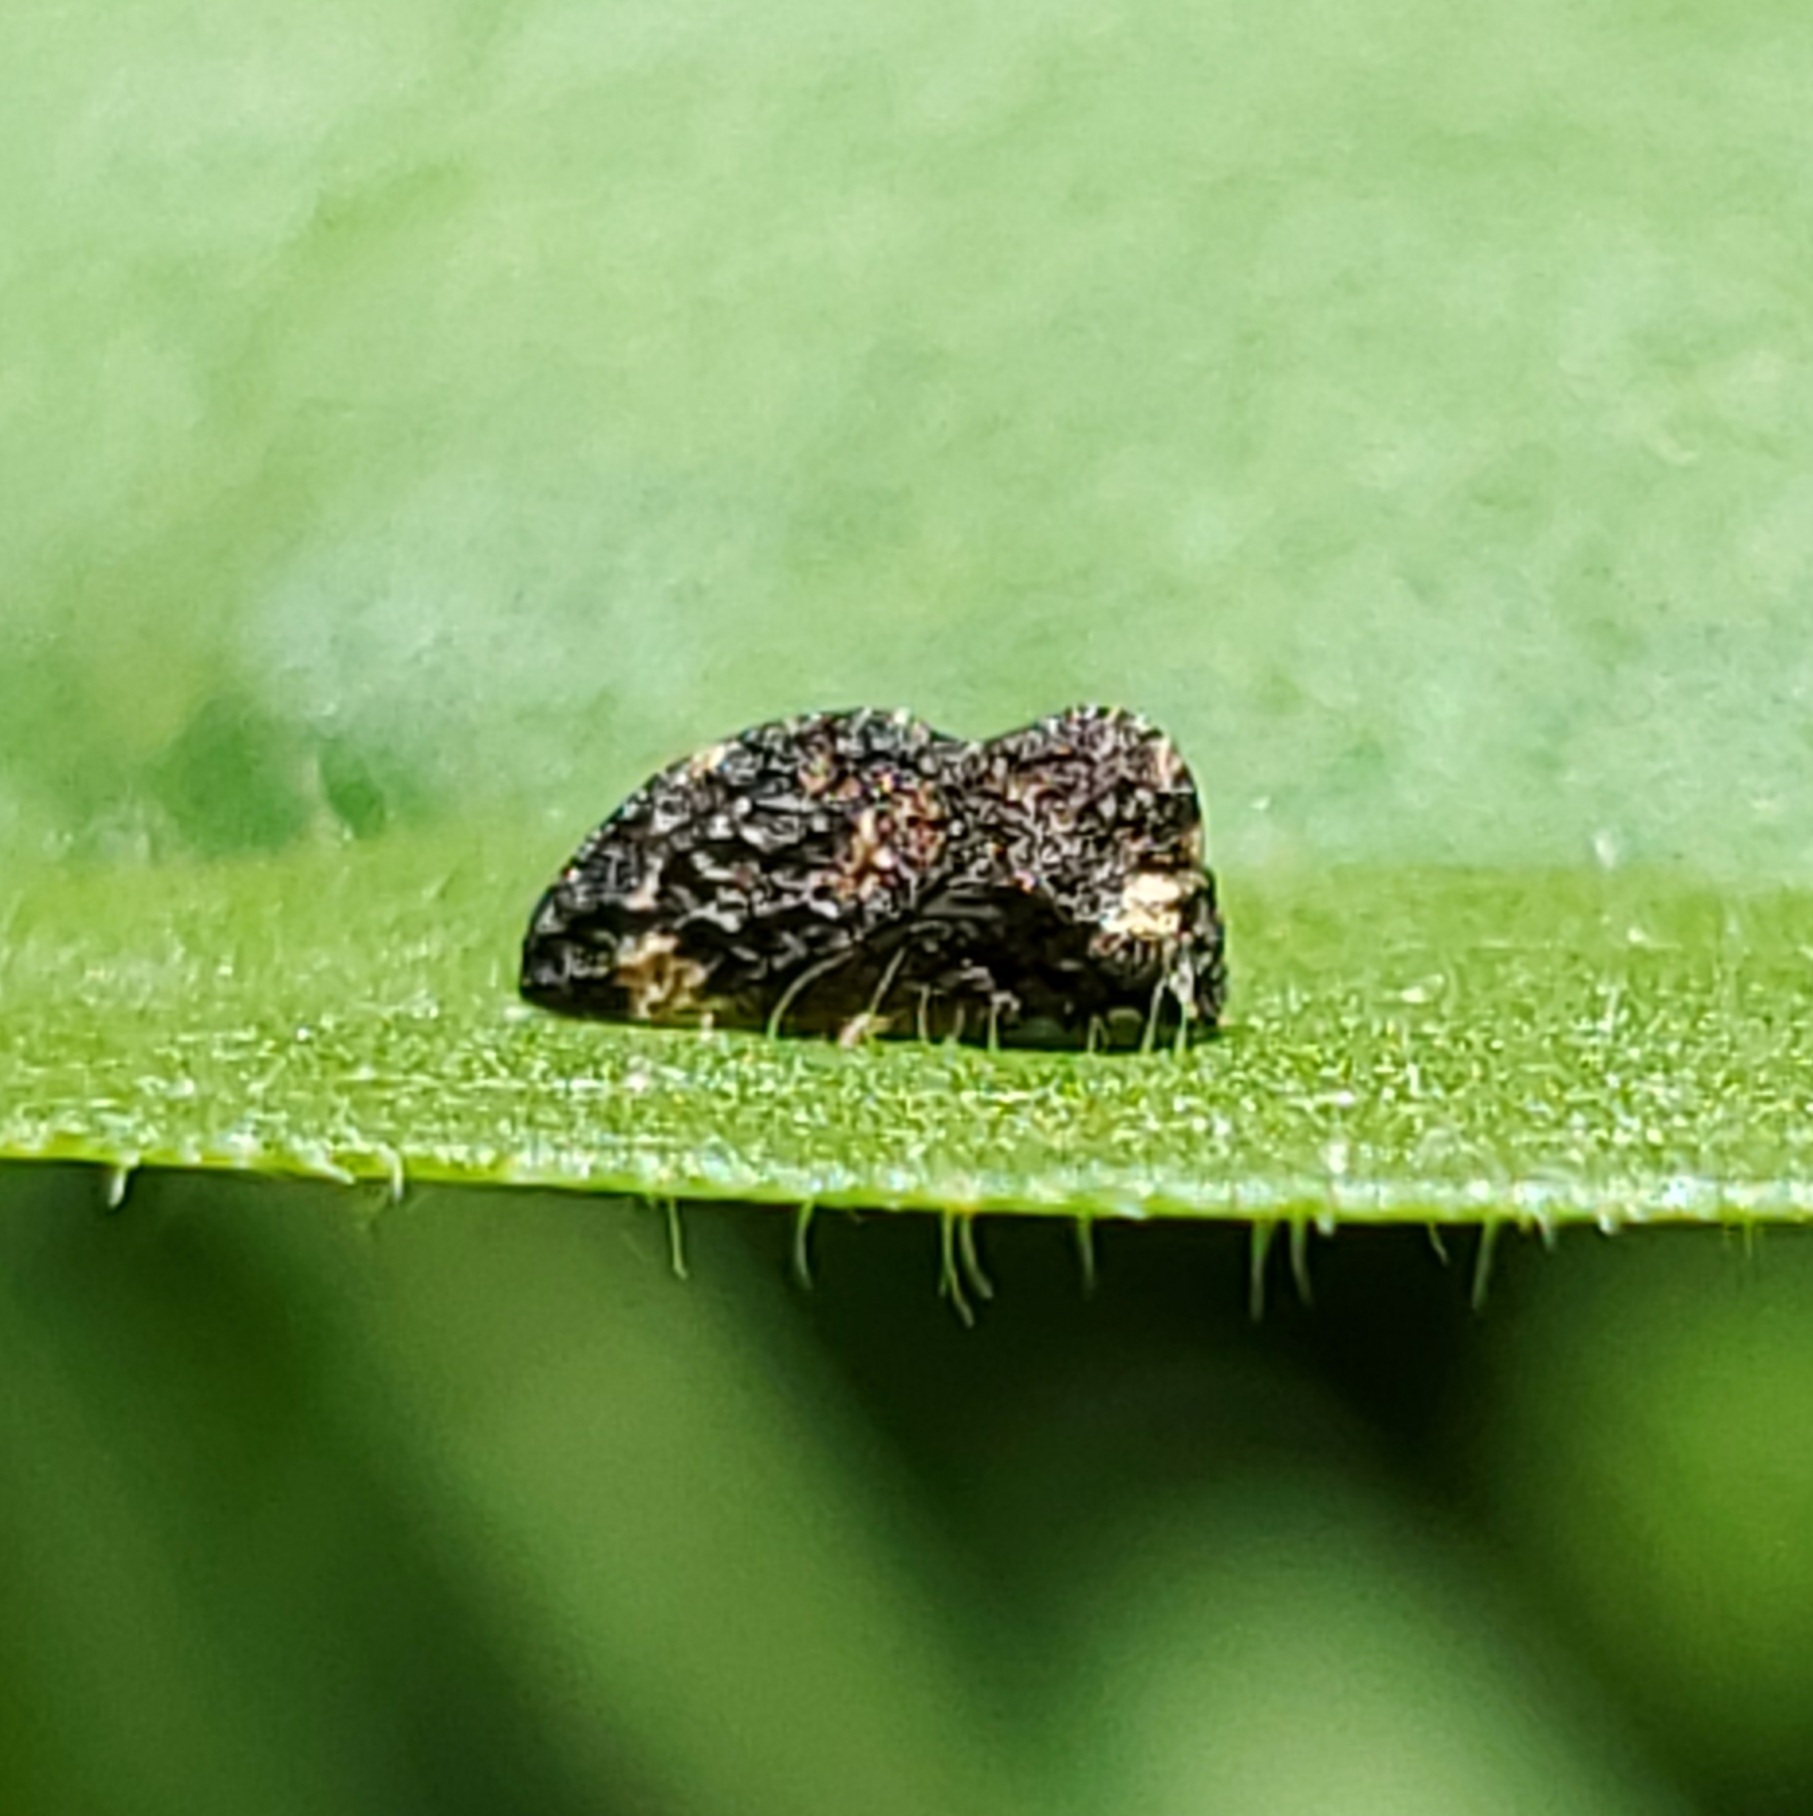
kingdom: Animalia
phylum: Arthropoda
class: Insecta
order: Hemiptera
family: Membracidae
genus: Publilia
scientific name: Publilia reticulata
